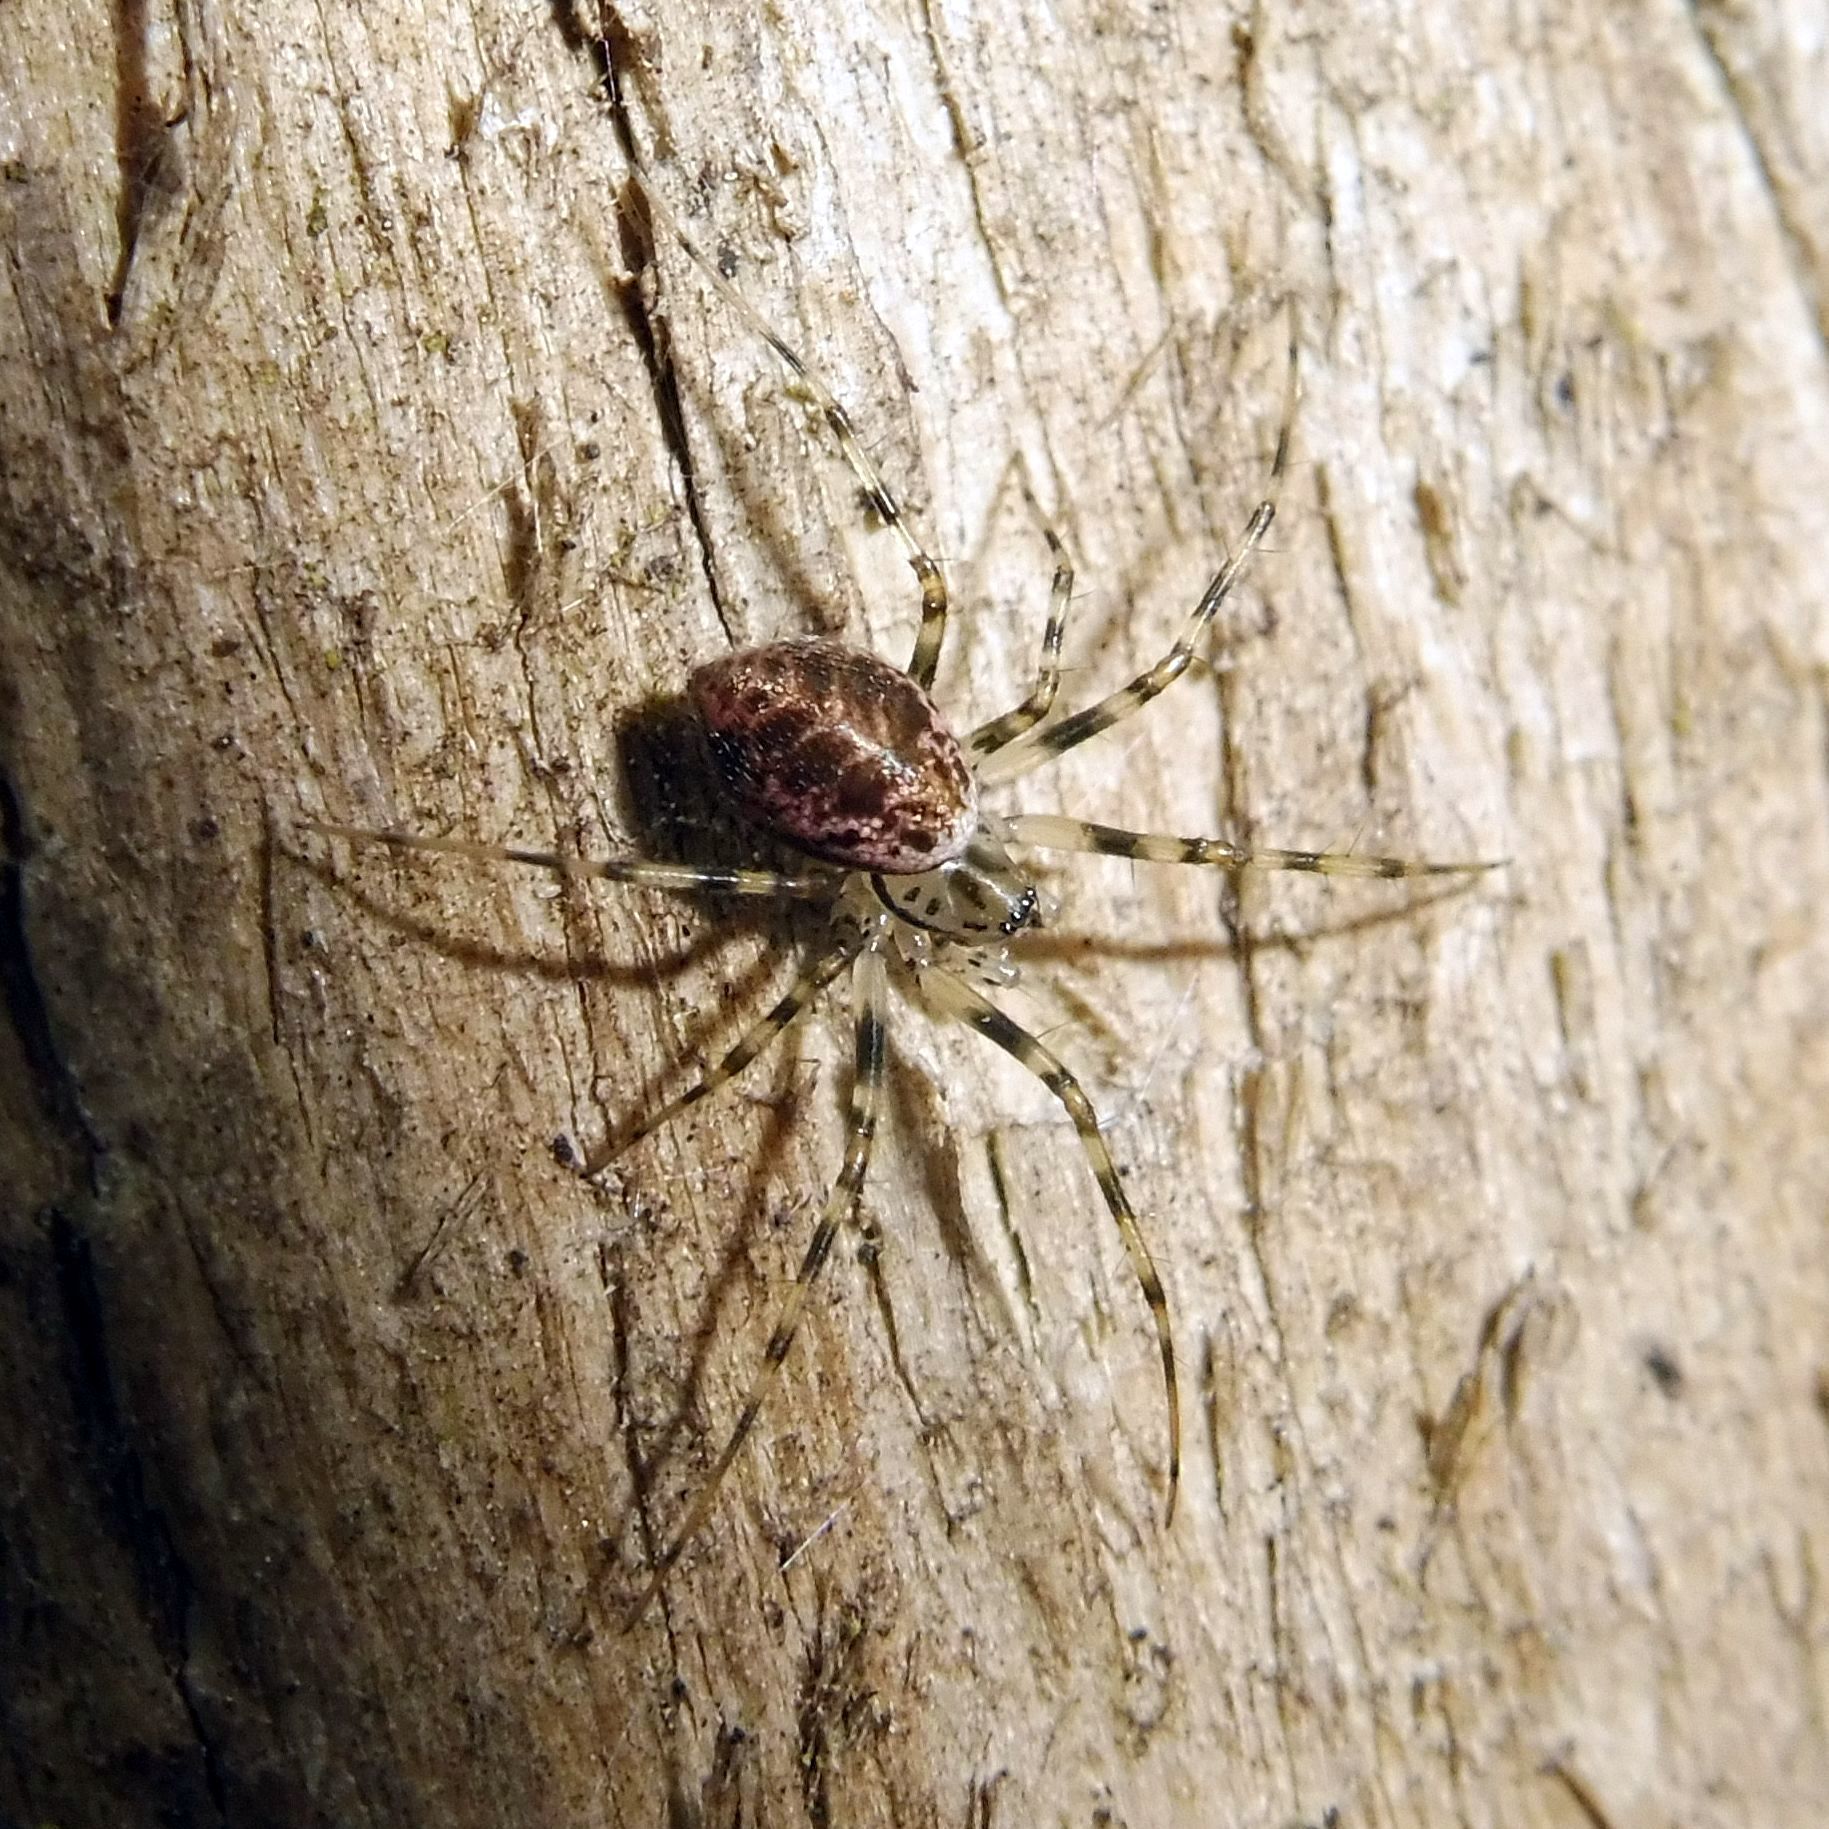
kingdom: Animalia
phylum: Arthropoda
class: Arachnida
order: Araneae
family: Linyphiidae
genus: Drapetisca
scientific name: Drapetisca socialis
